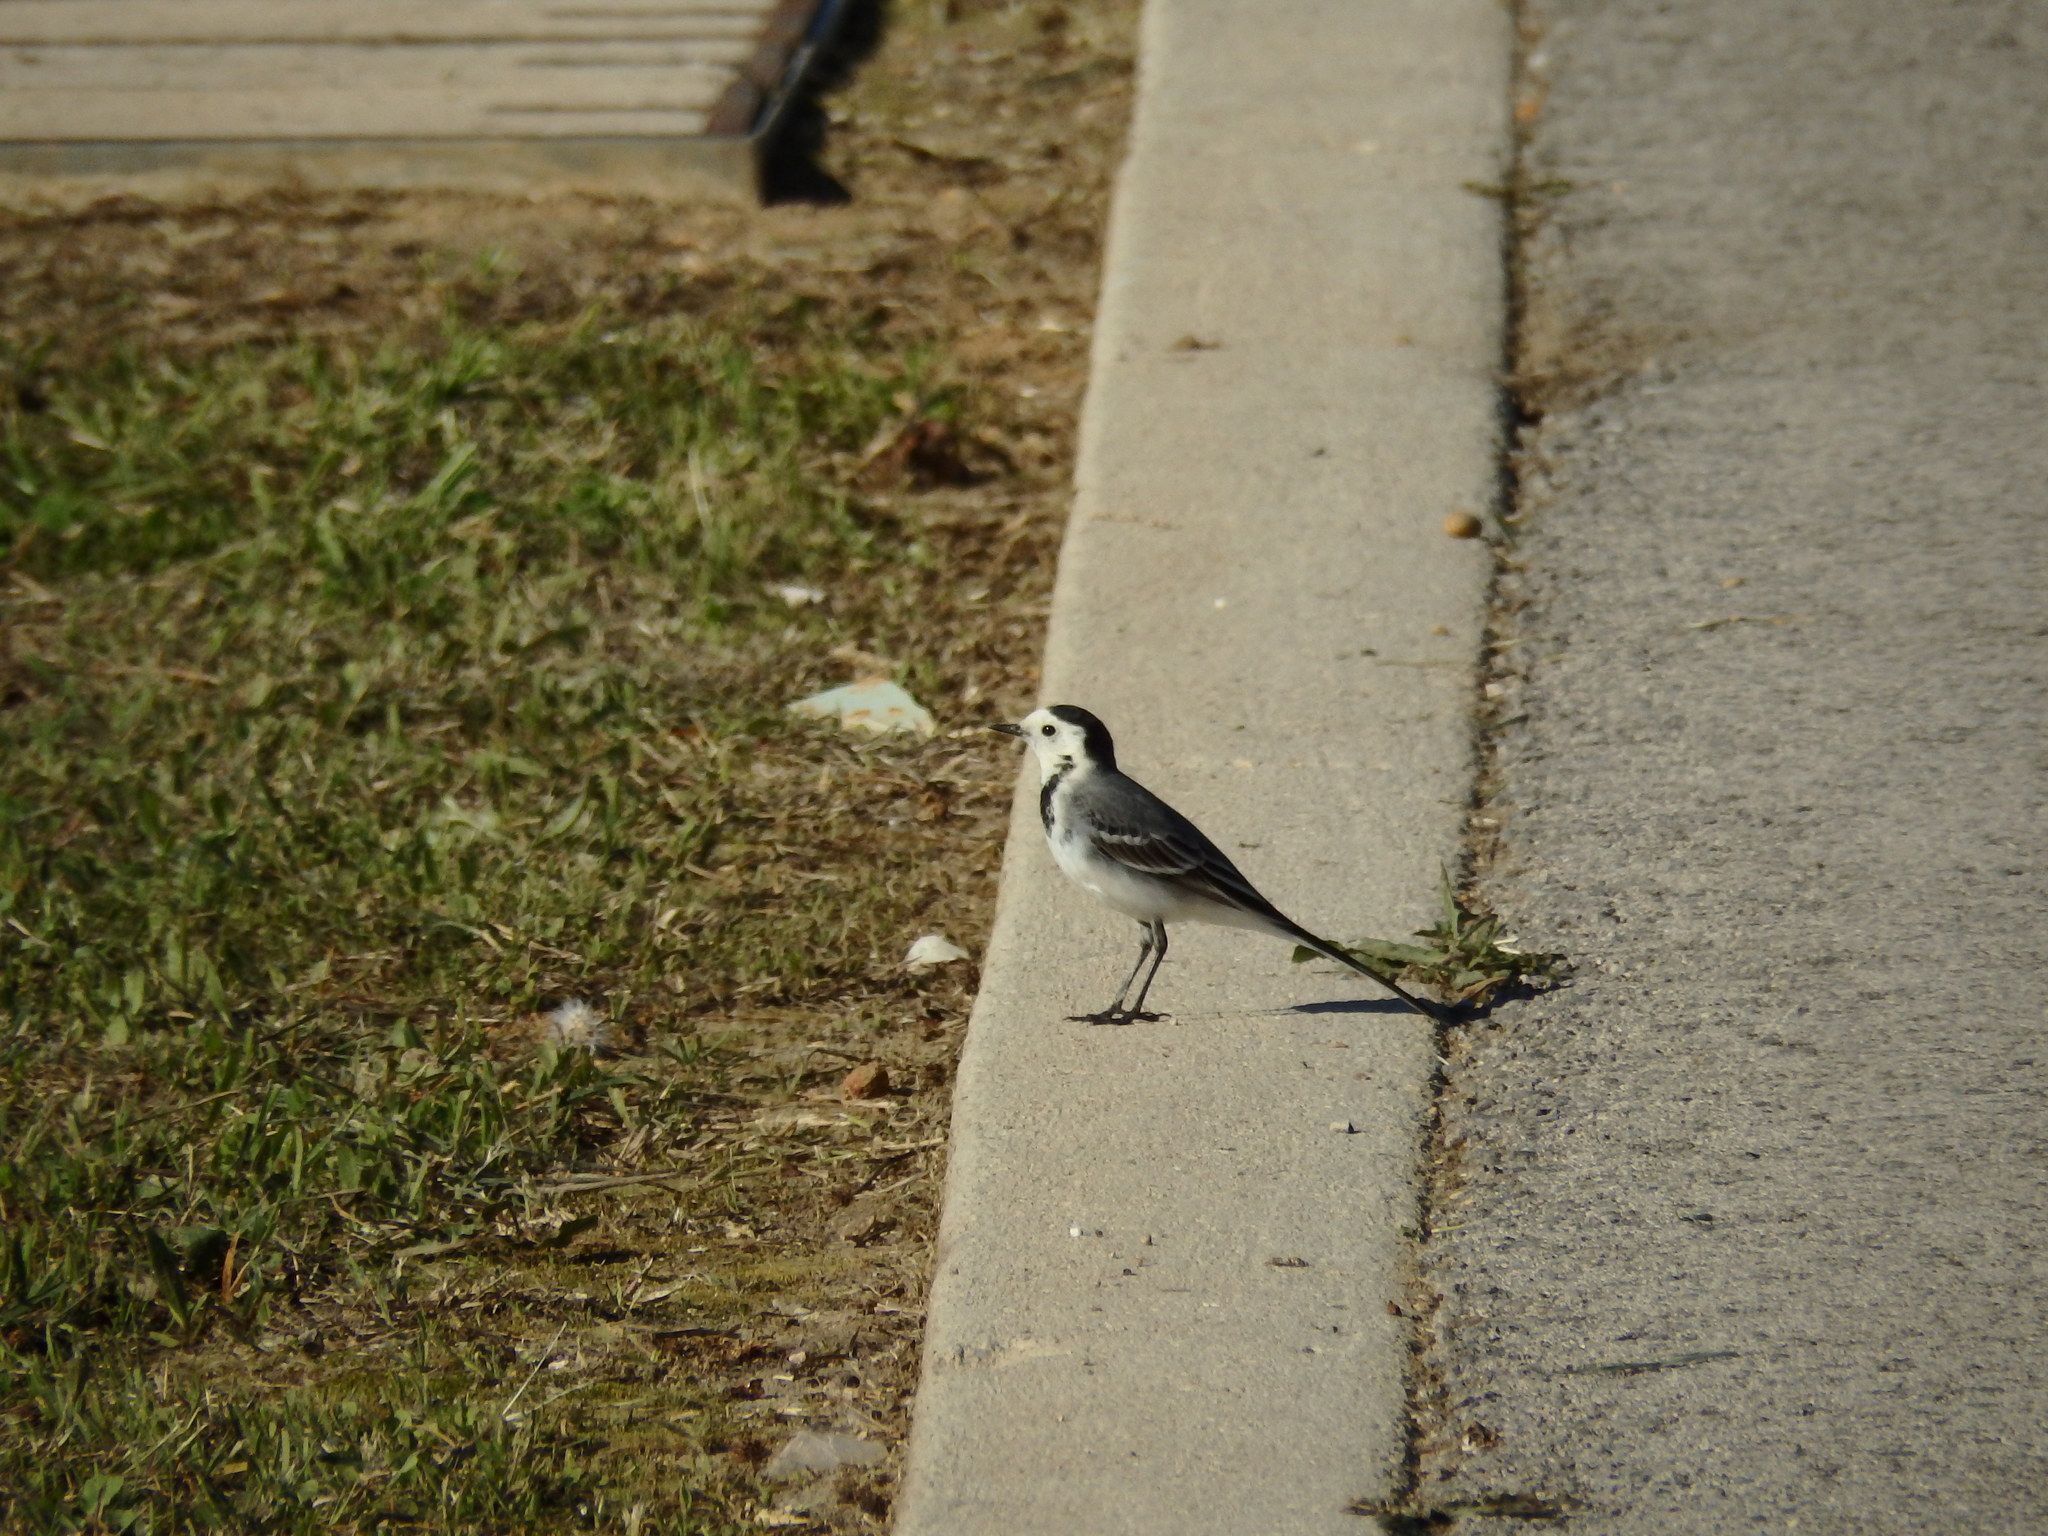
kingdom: Animalia
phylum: Chordata
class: Aves
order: Passeriformes
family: Motacillidae
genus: Motacilla
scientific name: Motacilla alba
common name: White wagtail
